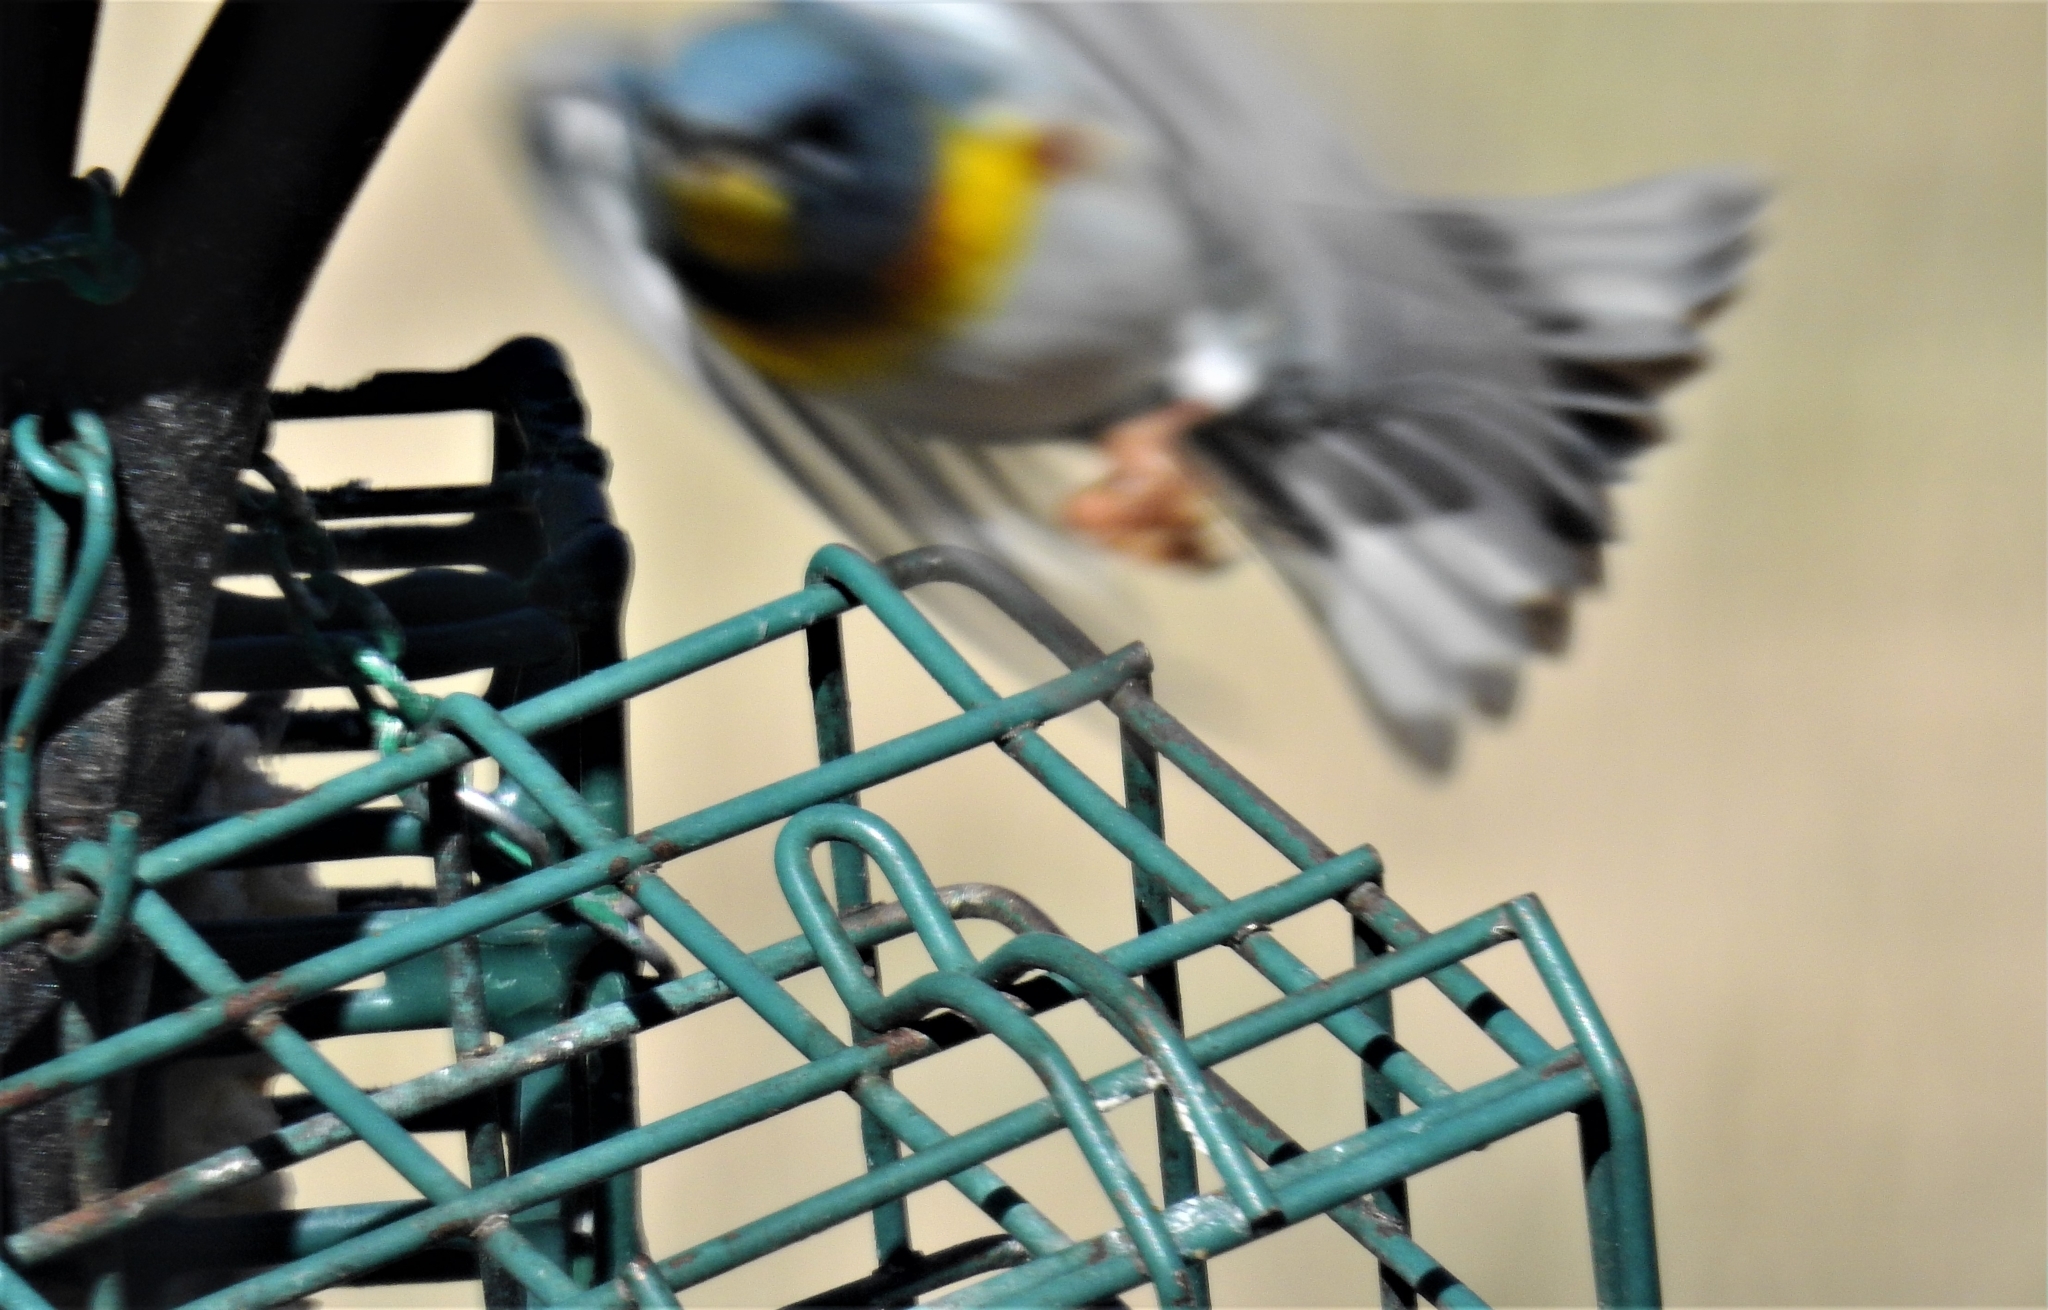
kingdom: Animalia
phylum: Chordata
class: Aves
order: Passeriformes
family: Parulidae
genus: Setophaga
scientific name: Setophaga americana
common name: Northern parula
